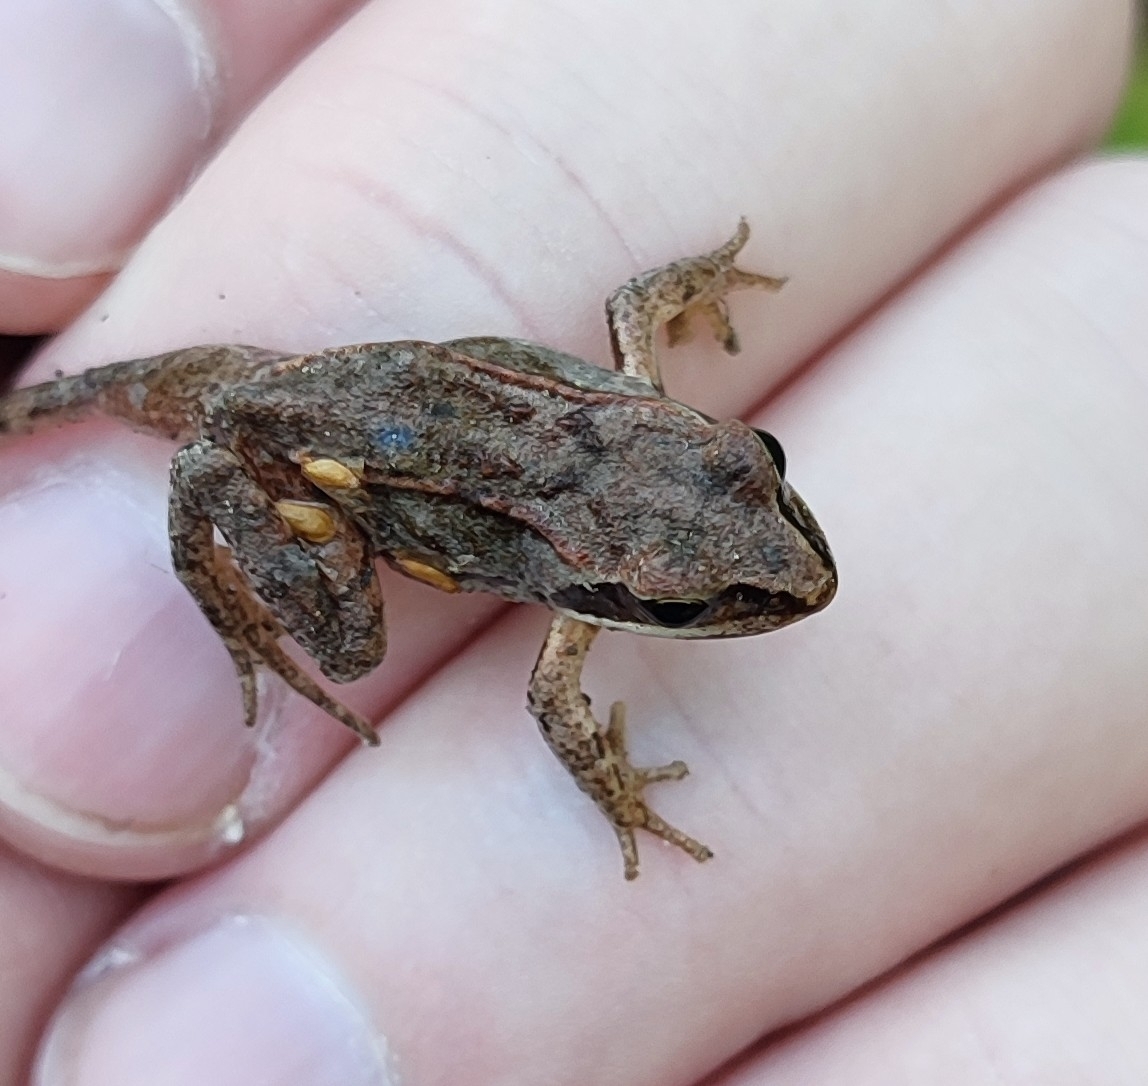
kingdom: Animalia
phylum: Chordata
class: Amphibia
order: Anura
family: Ranidae
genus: Rana
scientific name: Rana arvalis
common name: Moor frog
